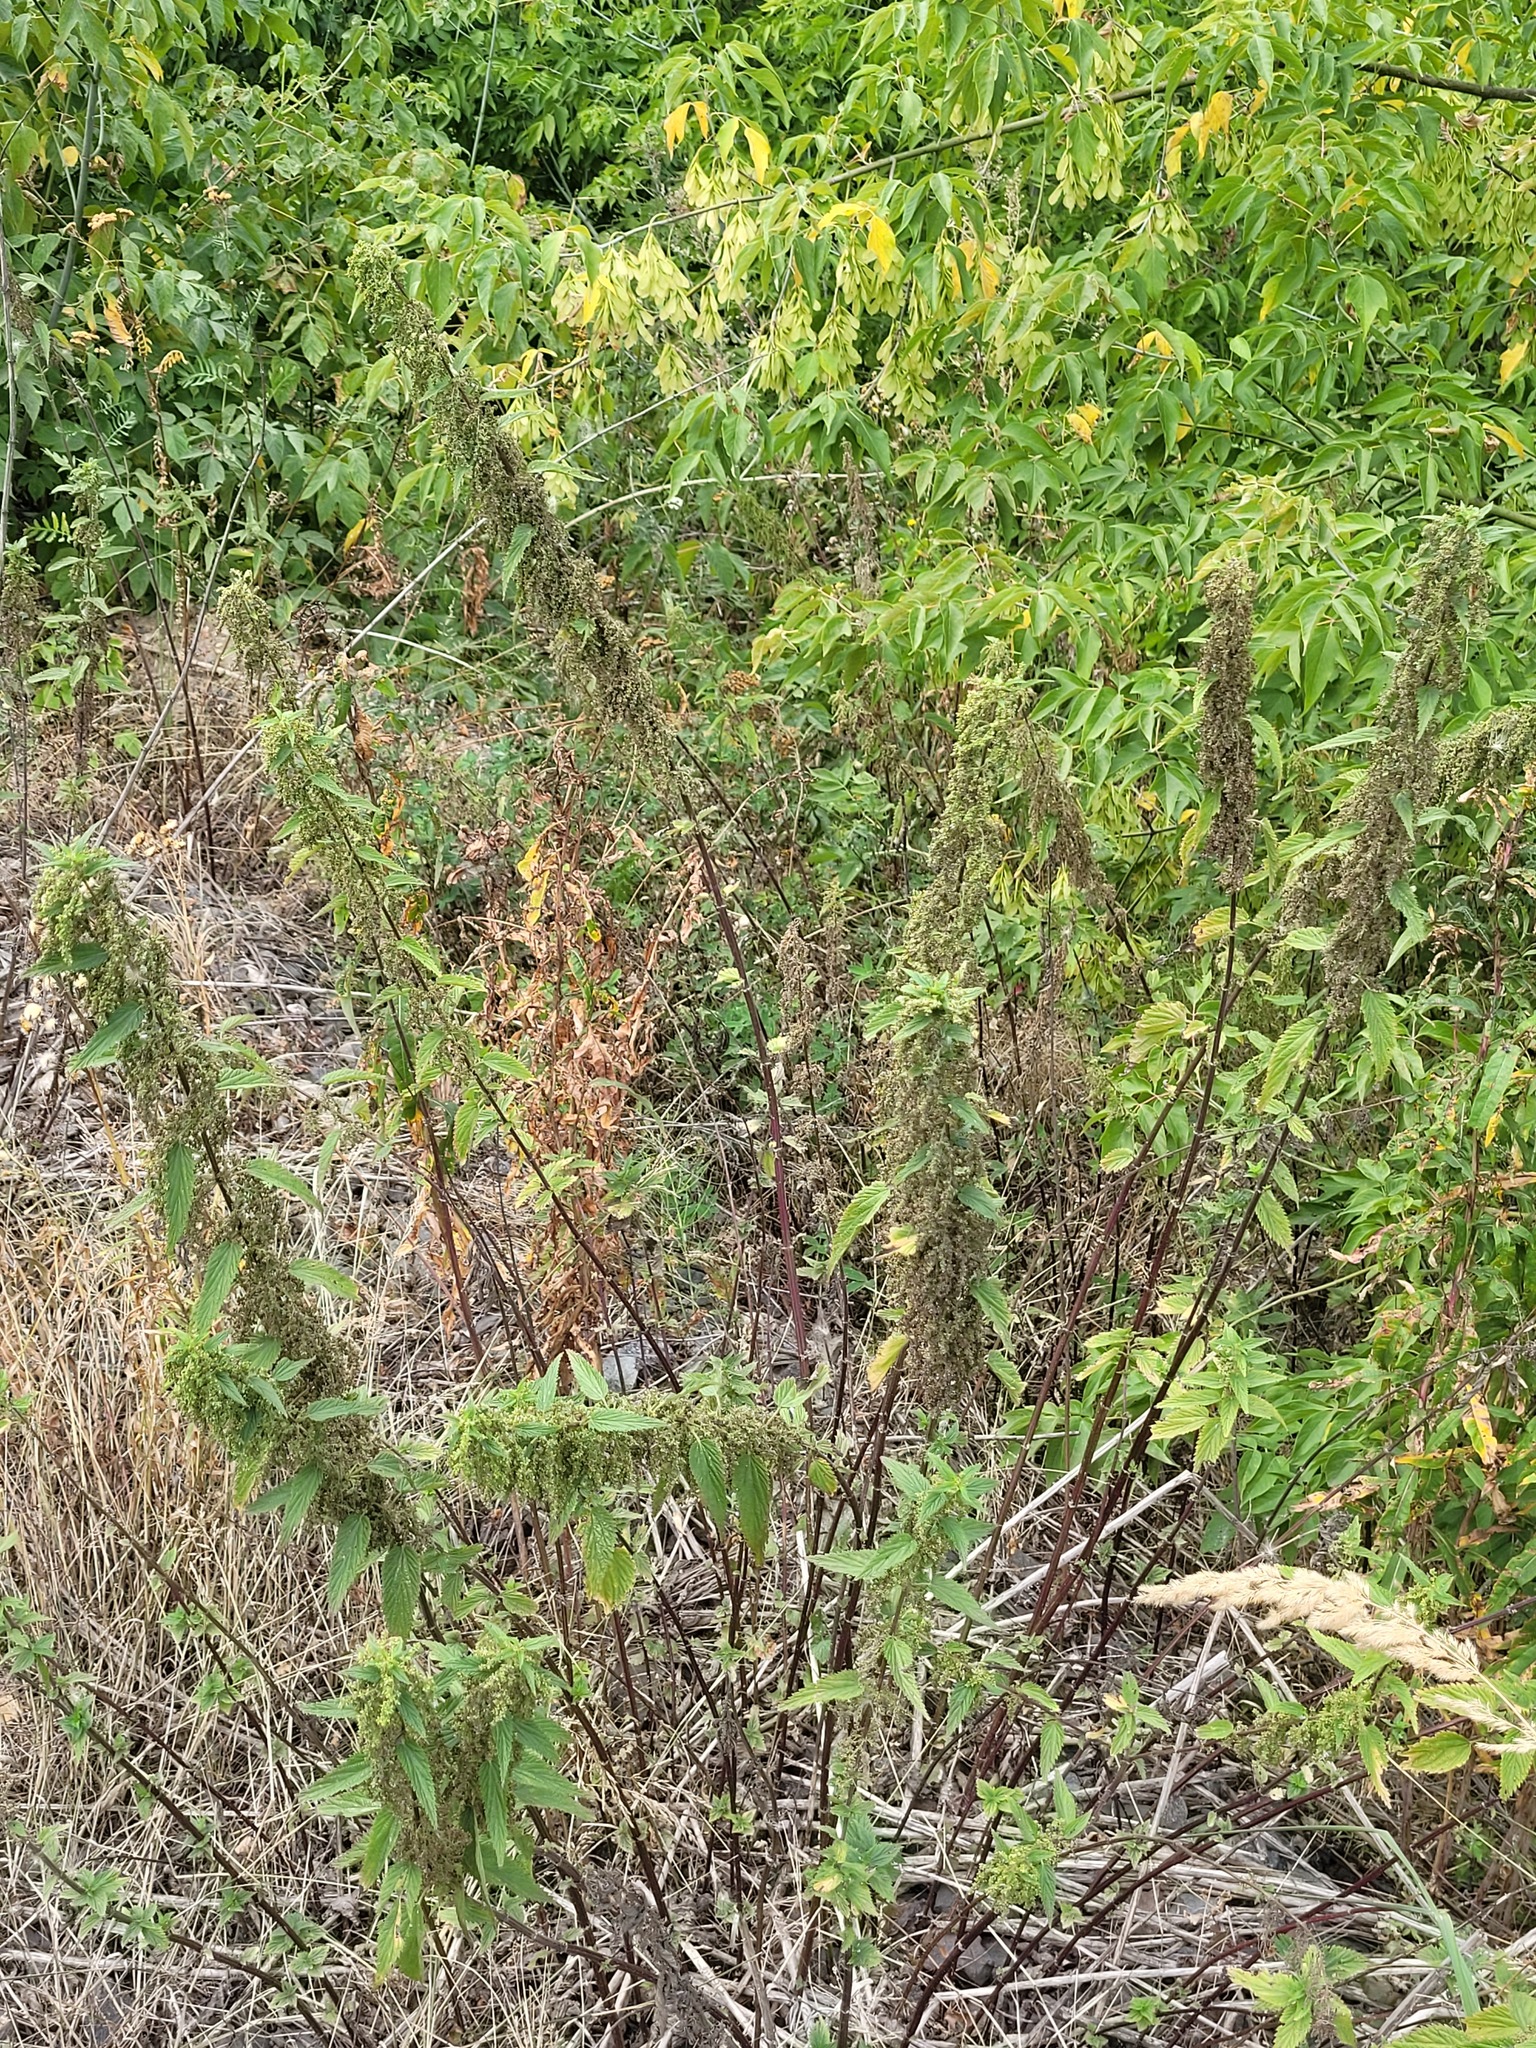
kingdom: Plantae
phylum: Tracheophyta
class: Magnoliopsida
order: Rosales
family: Urticaceae
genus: Urtica
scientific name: Urtica dioica
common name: Common nettle
